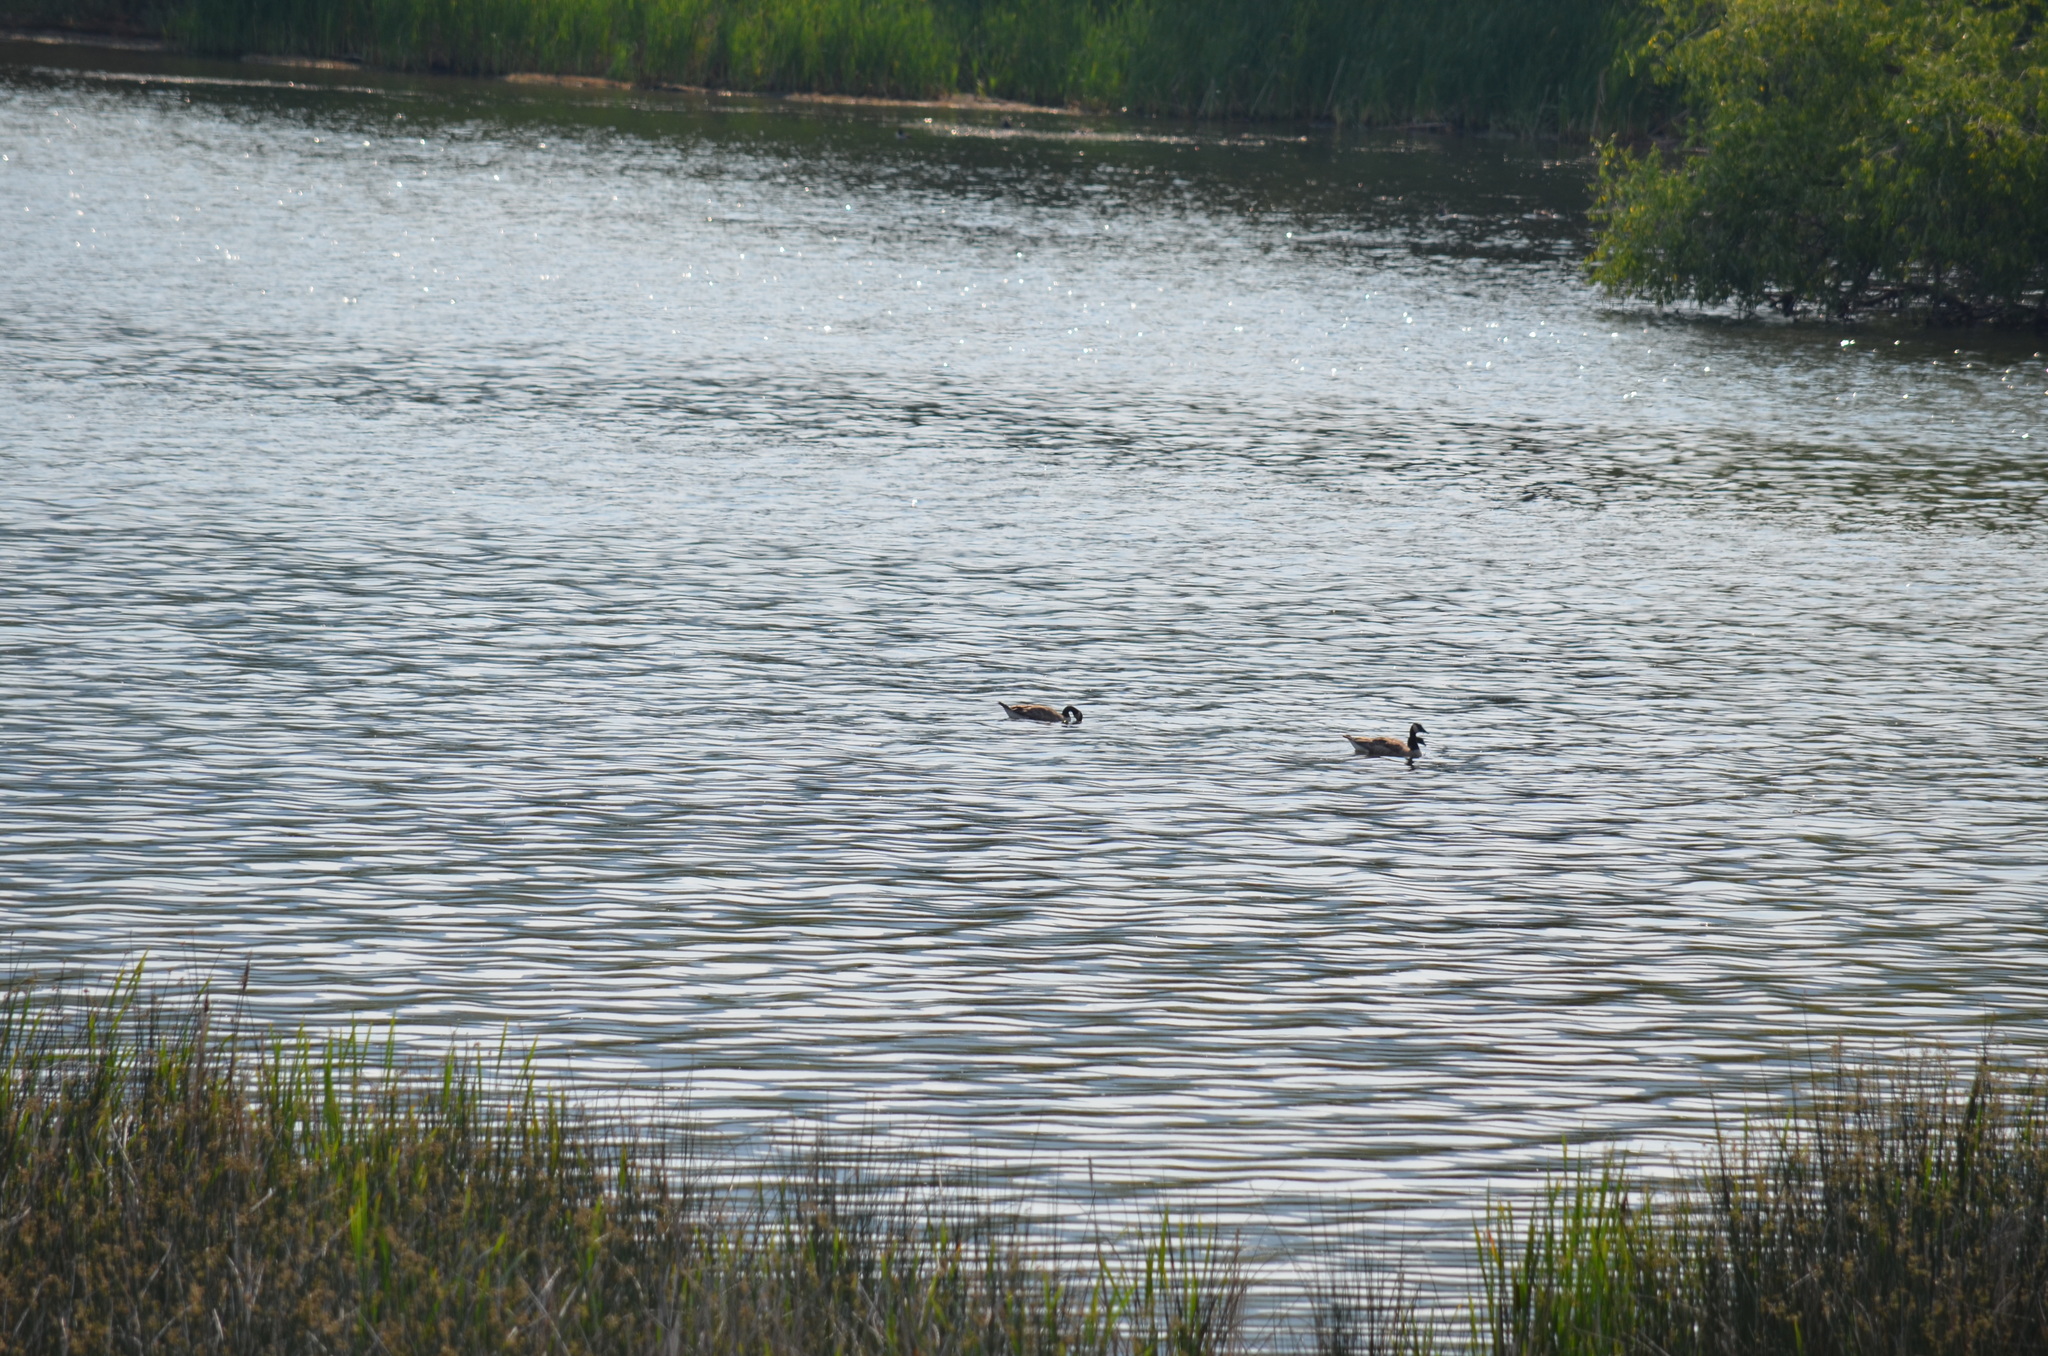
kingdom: Animalia
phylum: Chordata
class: Aves
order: Anseriformes
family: Anatidae
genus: Branta
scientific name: Branta canadensis
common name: Canada goose
